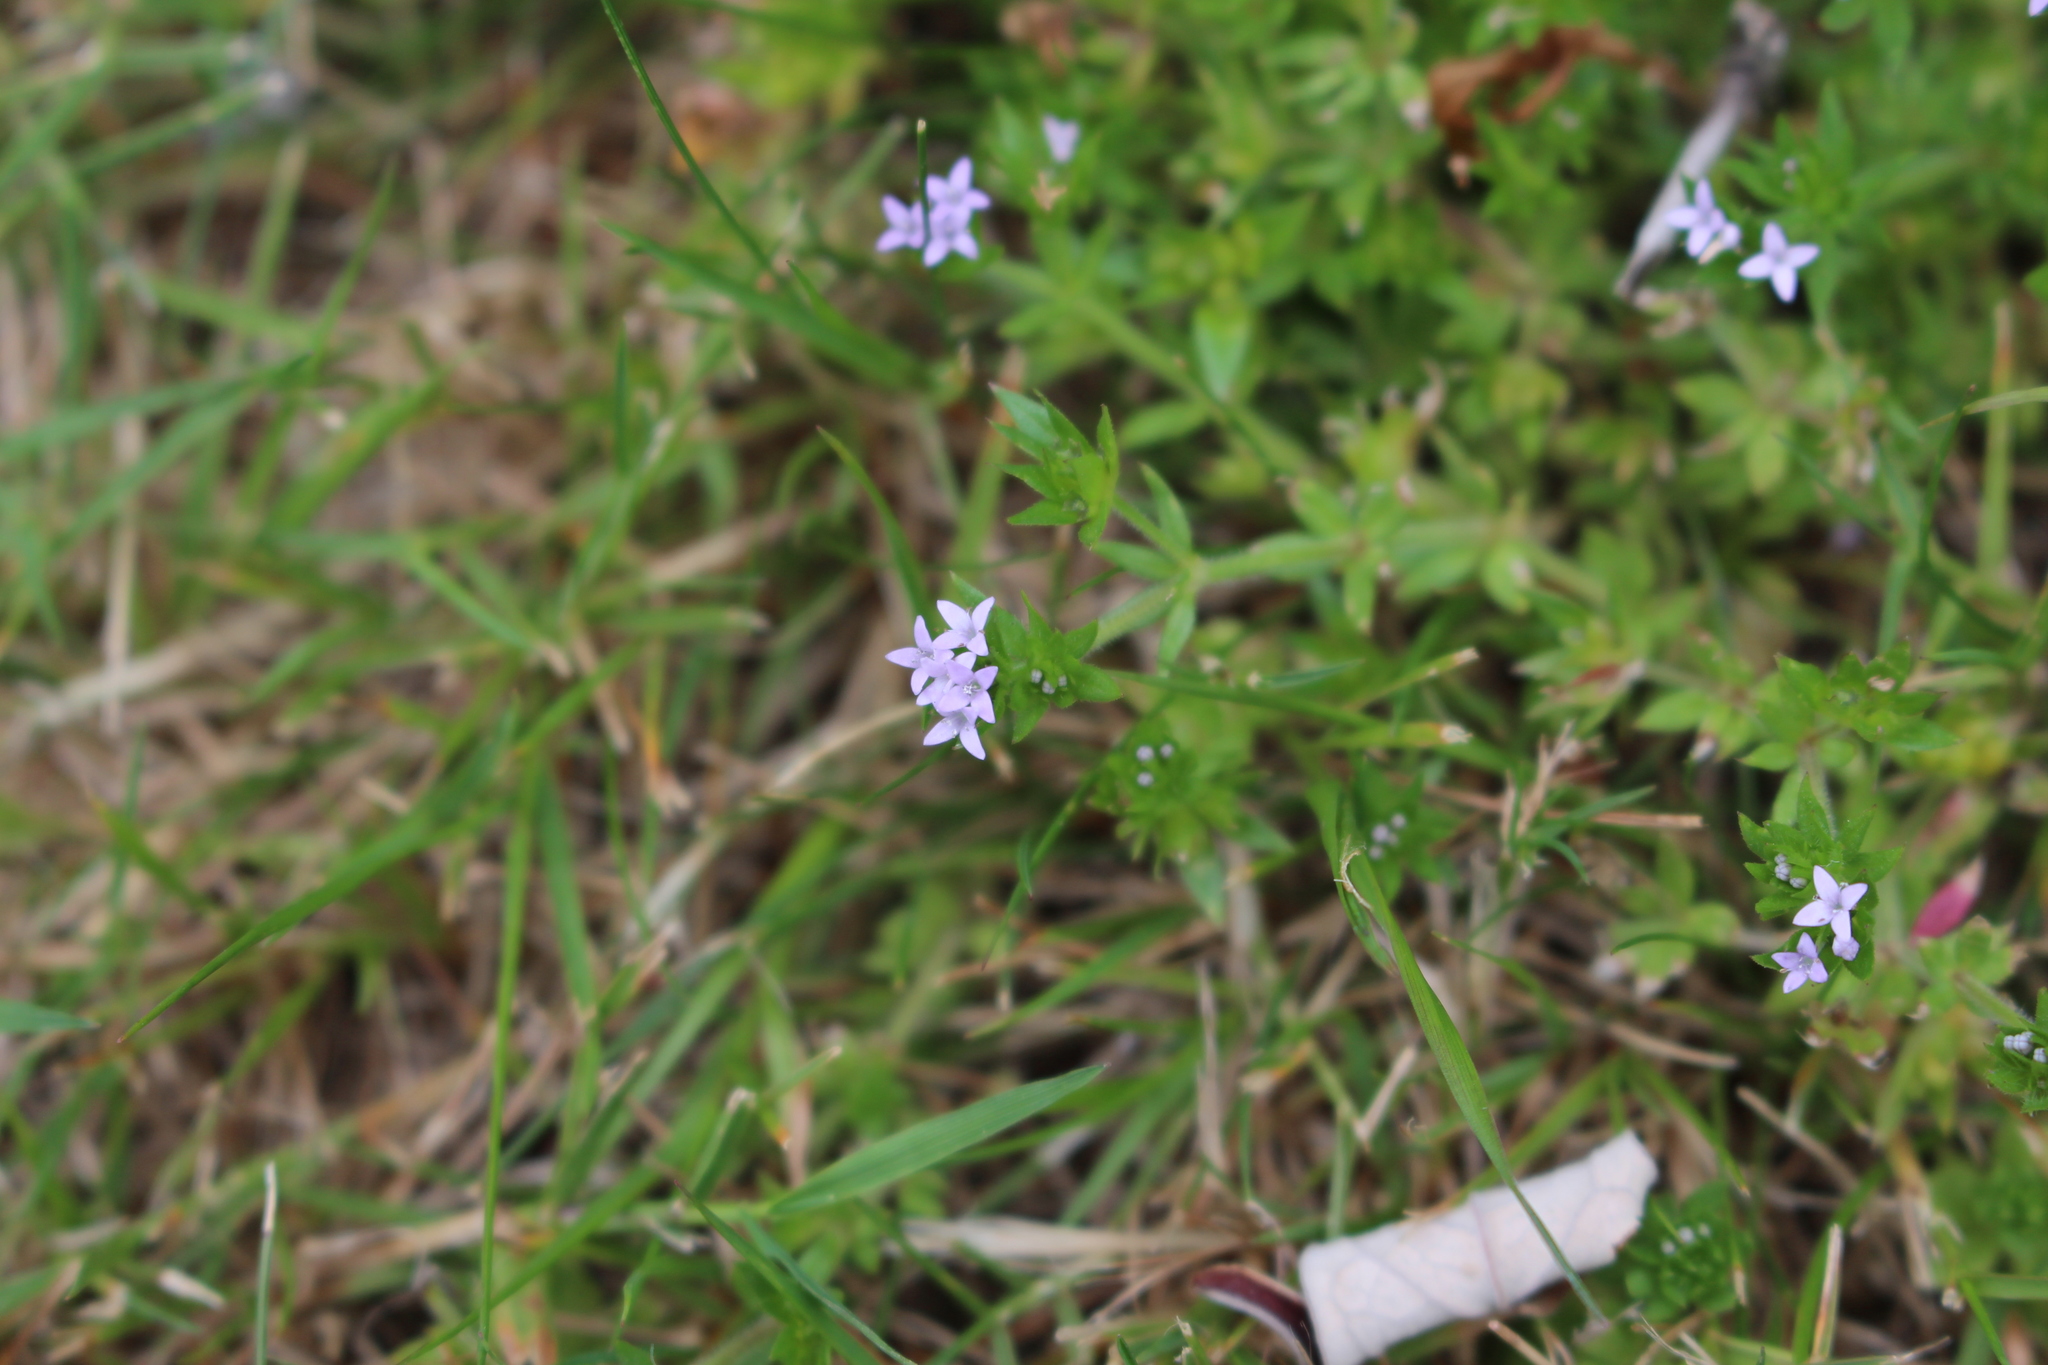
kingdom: Plantae
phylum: Tracheophyta
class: Magnoliopsida
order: Gentianales
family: Rubiaceae
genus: Sherardia
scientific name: Sherardia arvensis
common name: Field madder
